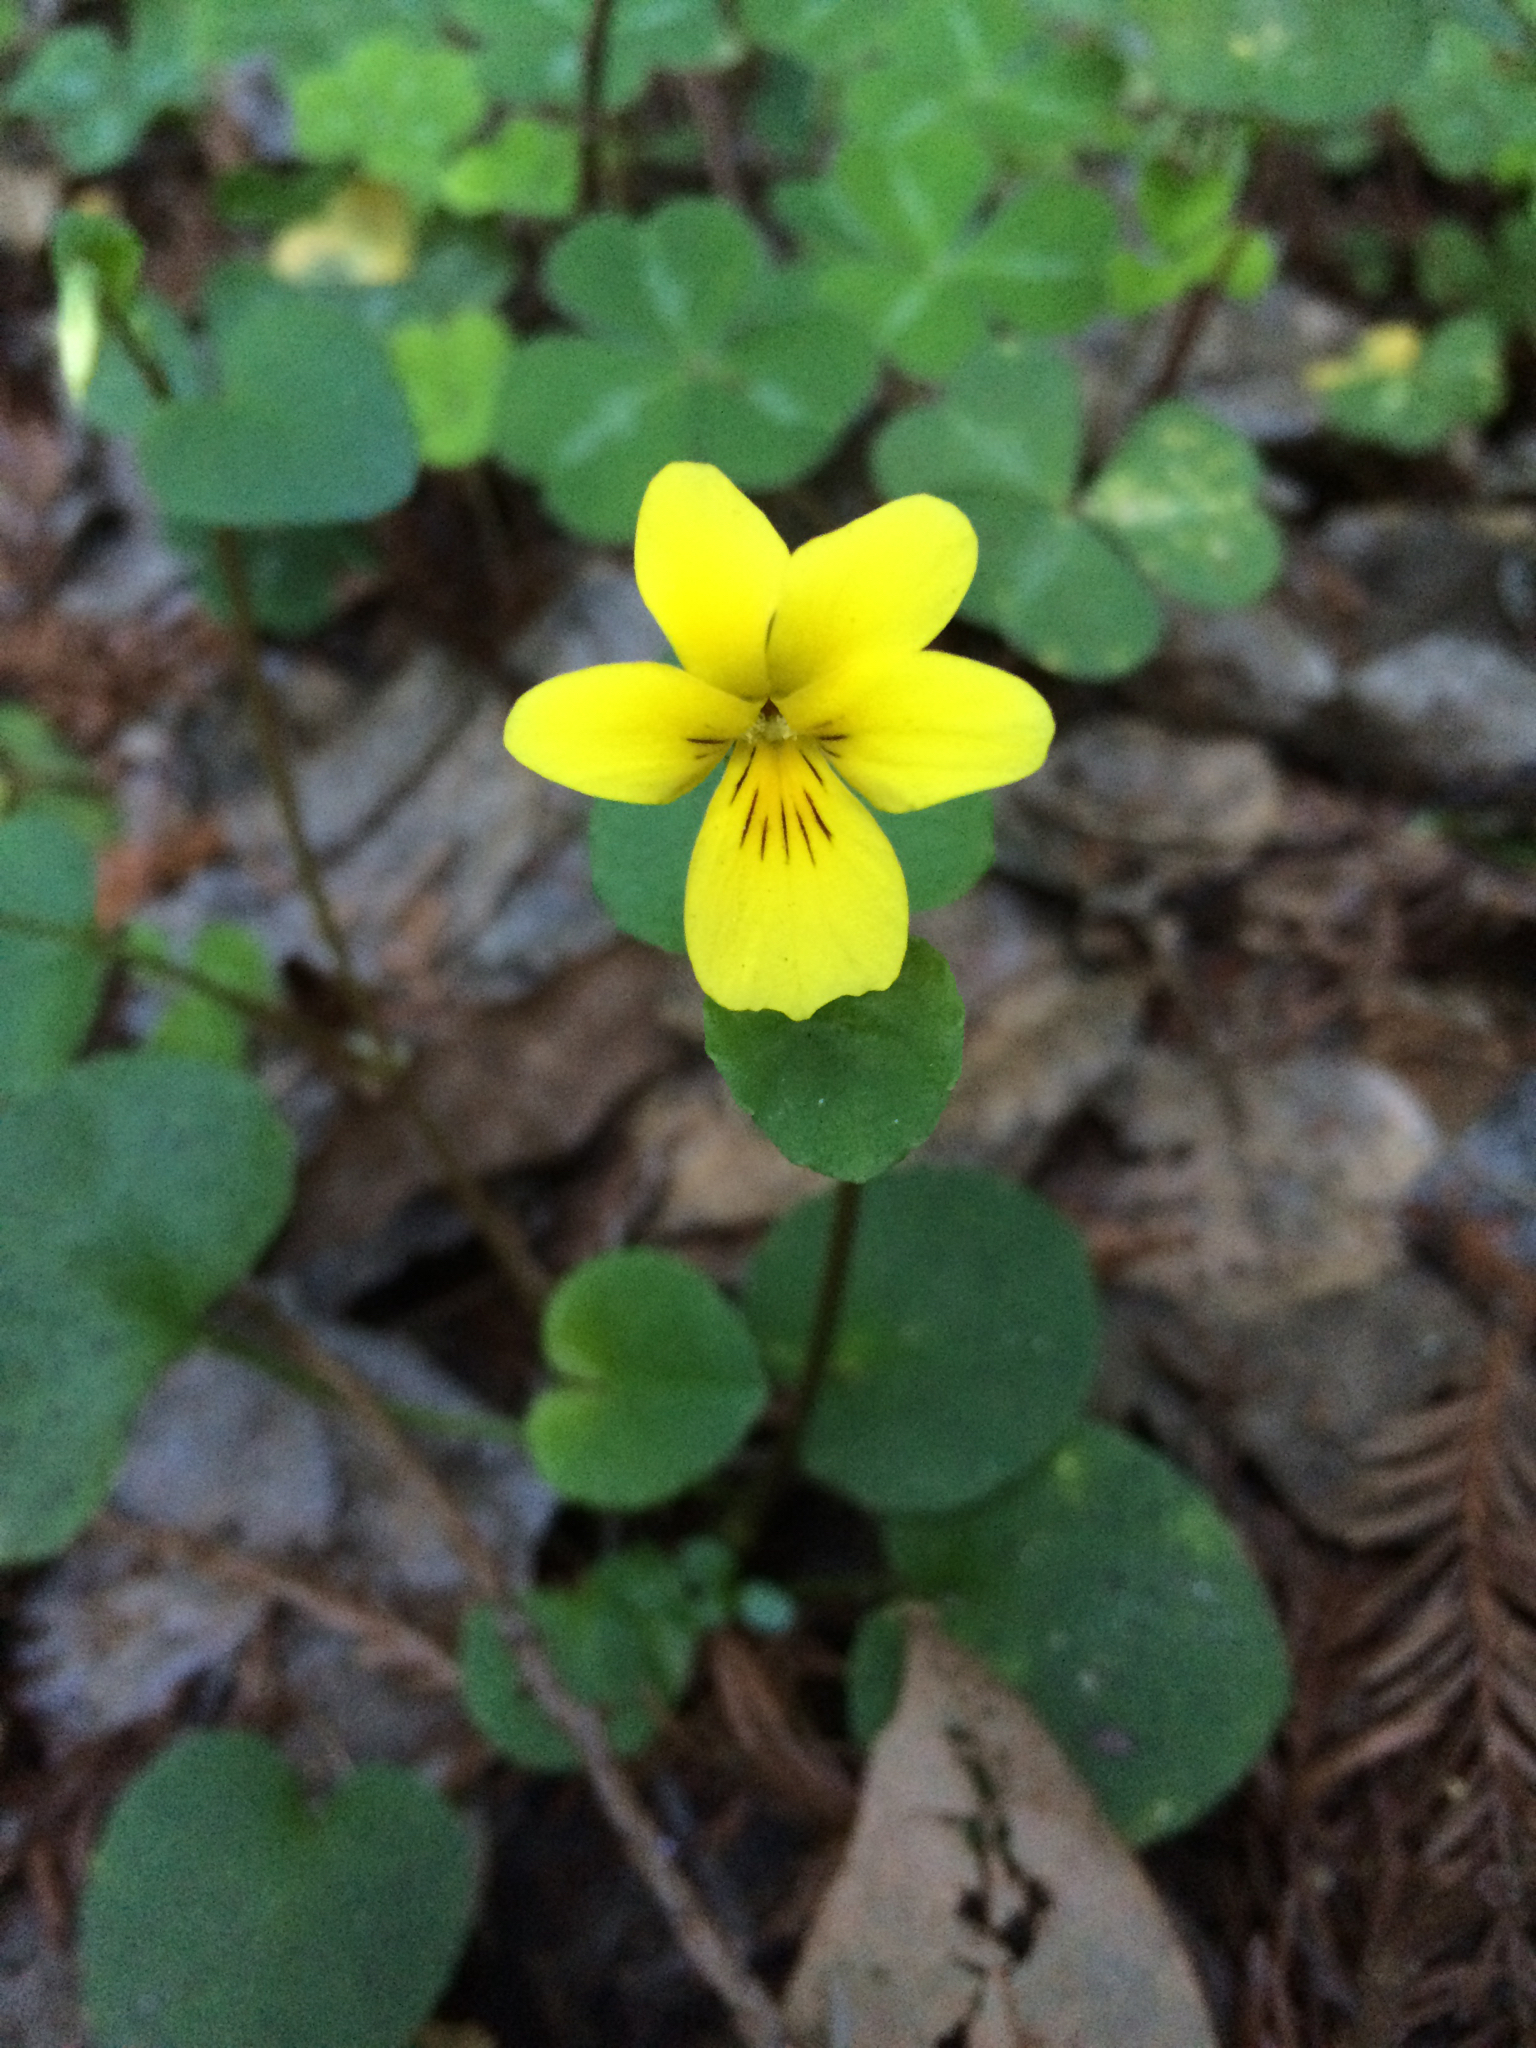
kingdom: Plantae
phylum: Tracheophyta
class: Magnoliopsida
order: Malpighiales
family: Violaceae
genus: Viola
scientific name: Viola sempervirens
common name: Evergreen violet
